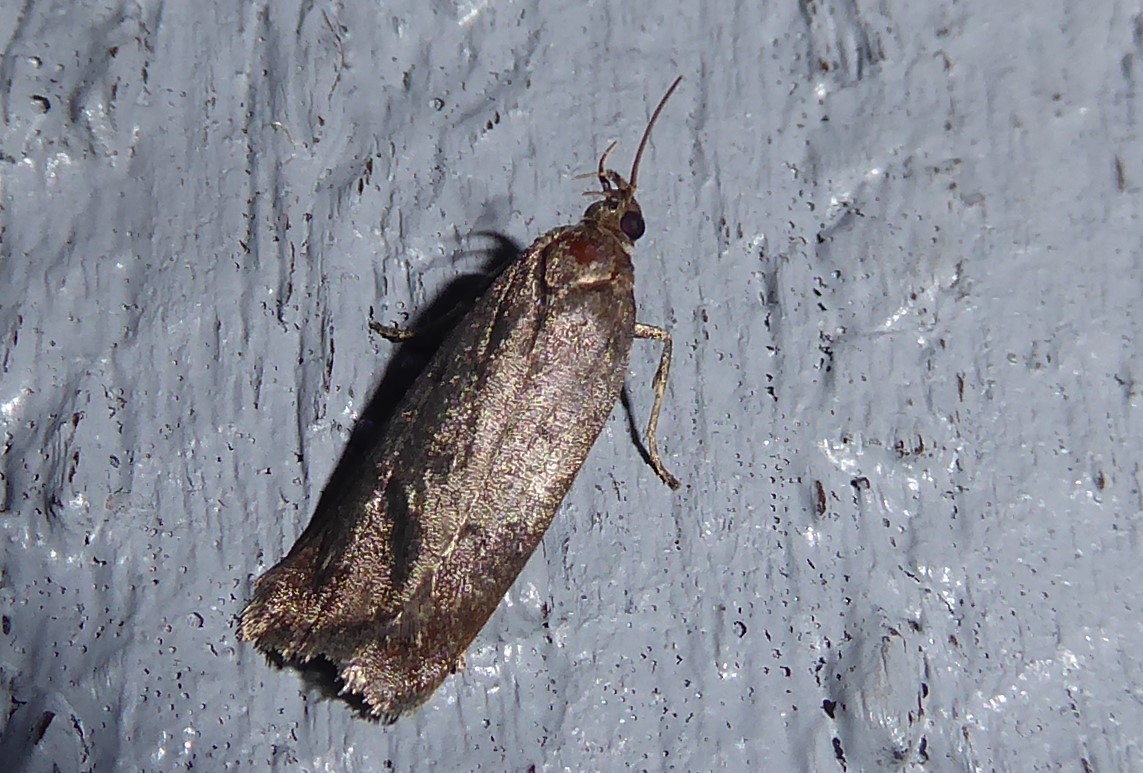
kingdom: Animalia
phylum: Arthropoda
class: Insecta
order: Lepidoptera
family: Depressariidae
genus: Phaeosaces
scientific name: Phaeosaces apocrypta
